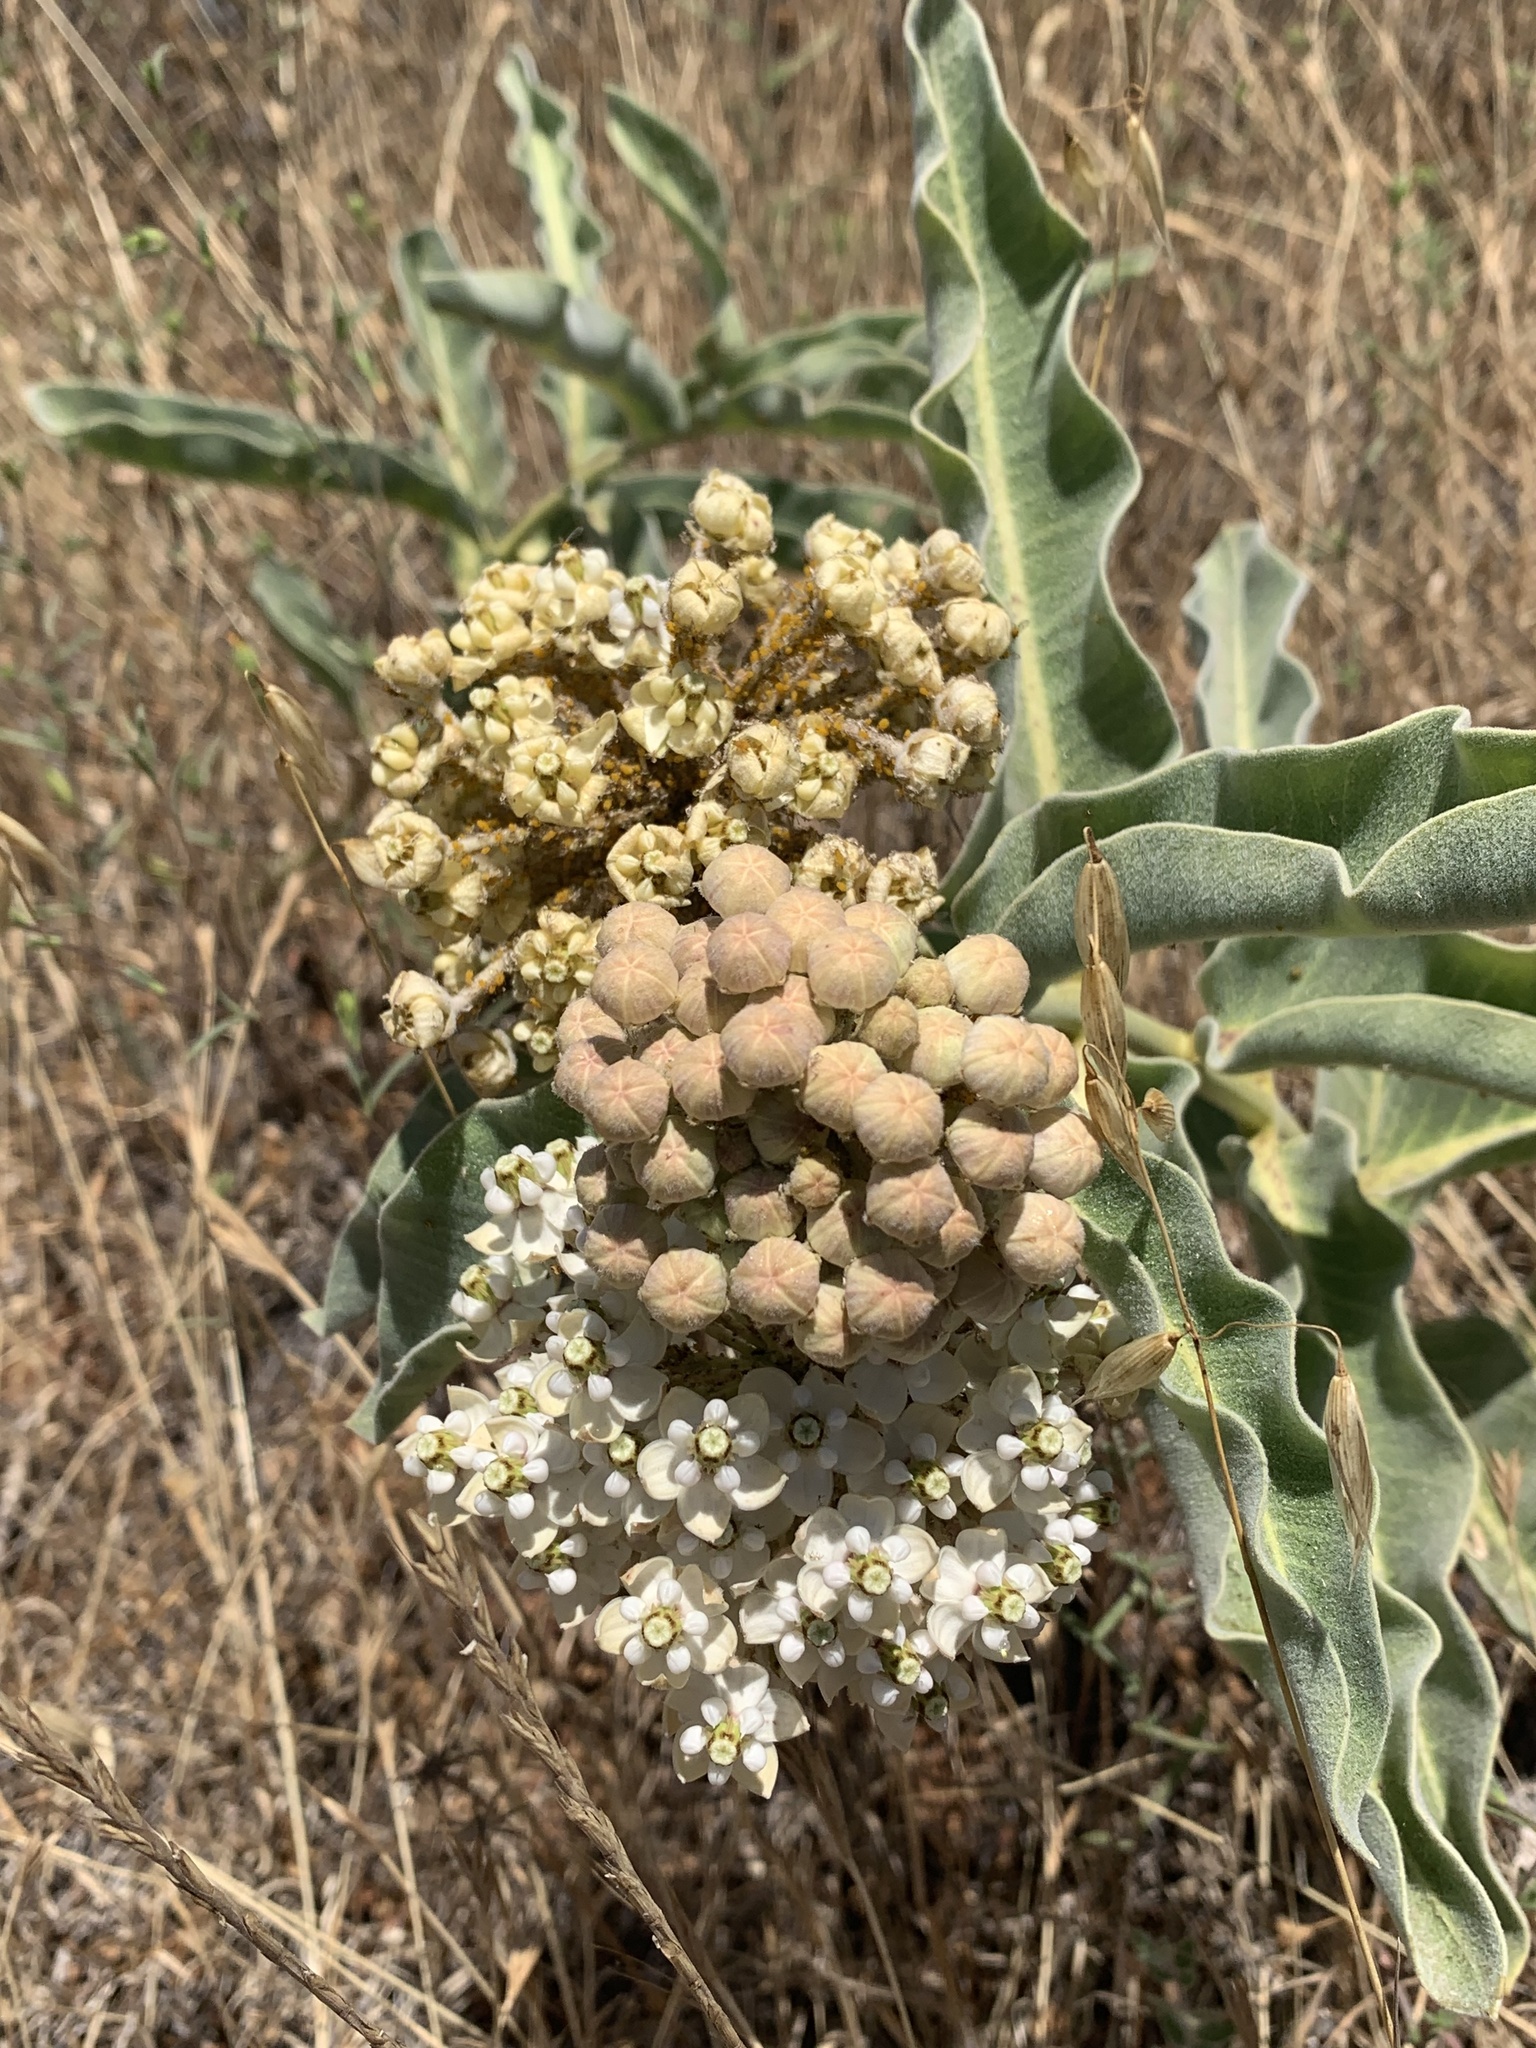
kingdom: Plantae
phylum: Tracheophyta
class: Magnoliopsida
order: Gentianales
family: Apocynaceae
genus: Asclepias
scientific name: Asclepias eriocarpa
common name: Indian milkweed
